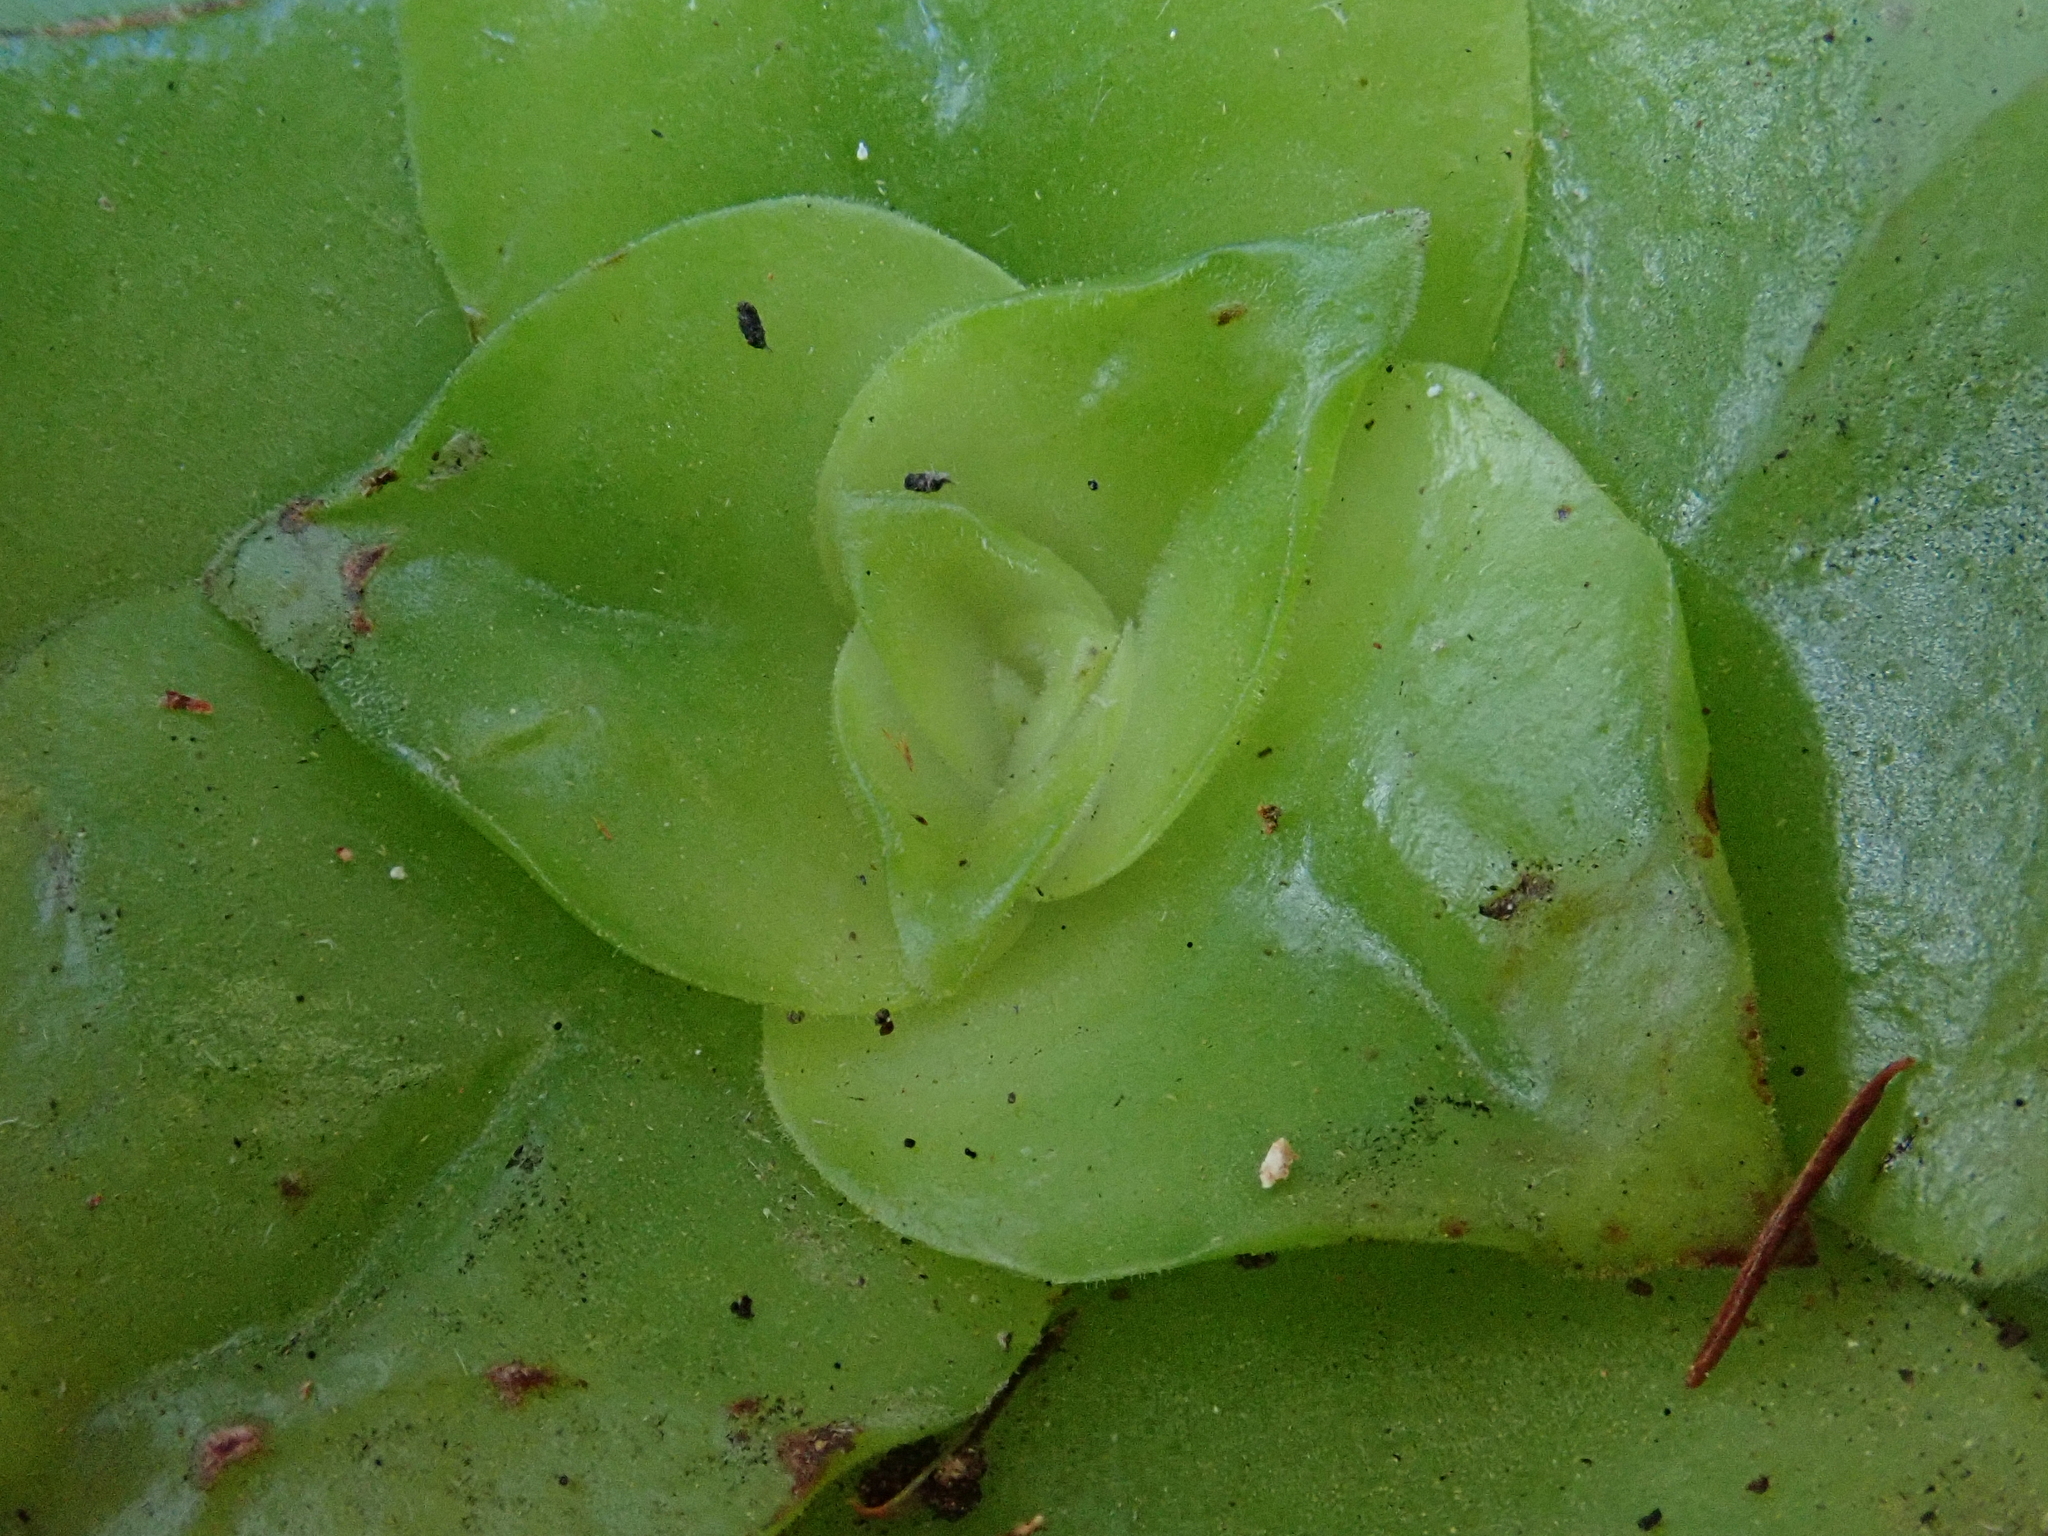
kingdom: Plantae
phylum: Tracheophyta
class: Magnoliopsida
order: Saxifragales
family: Crassulaceae
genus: Aeonium
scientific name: Aeonium goochiae
